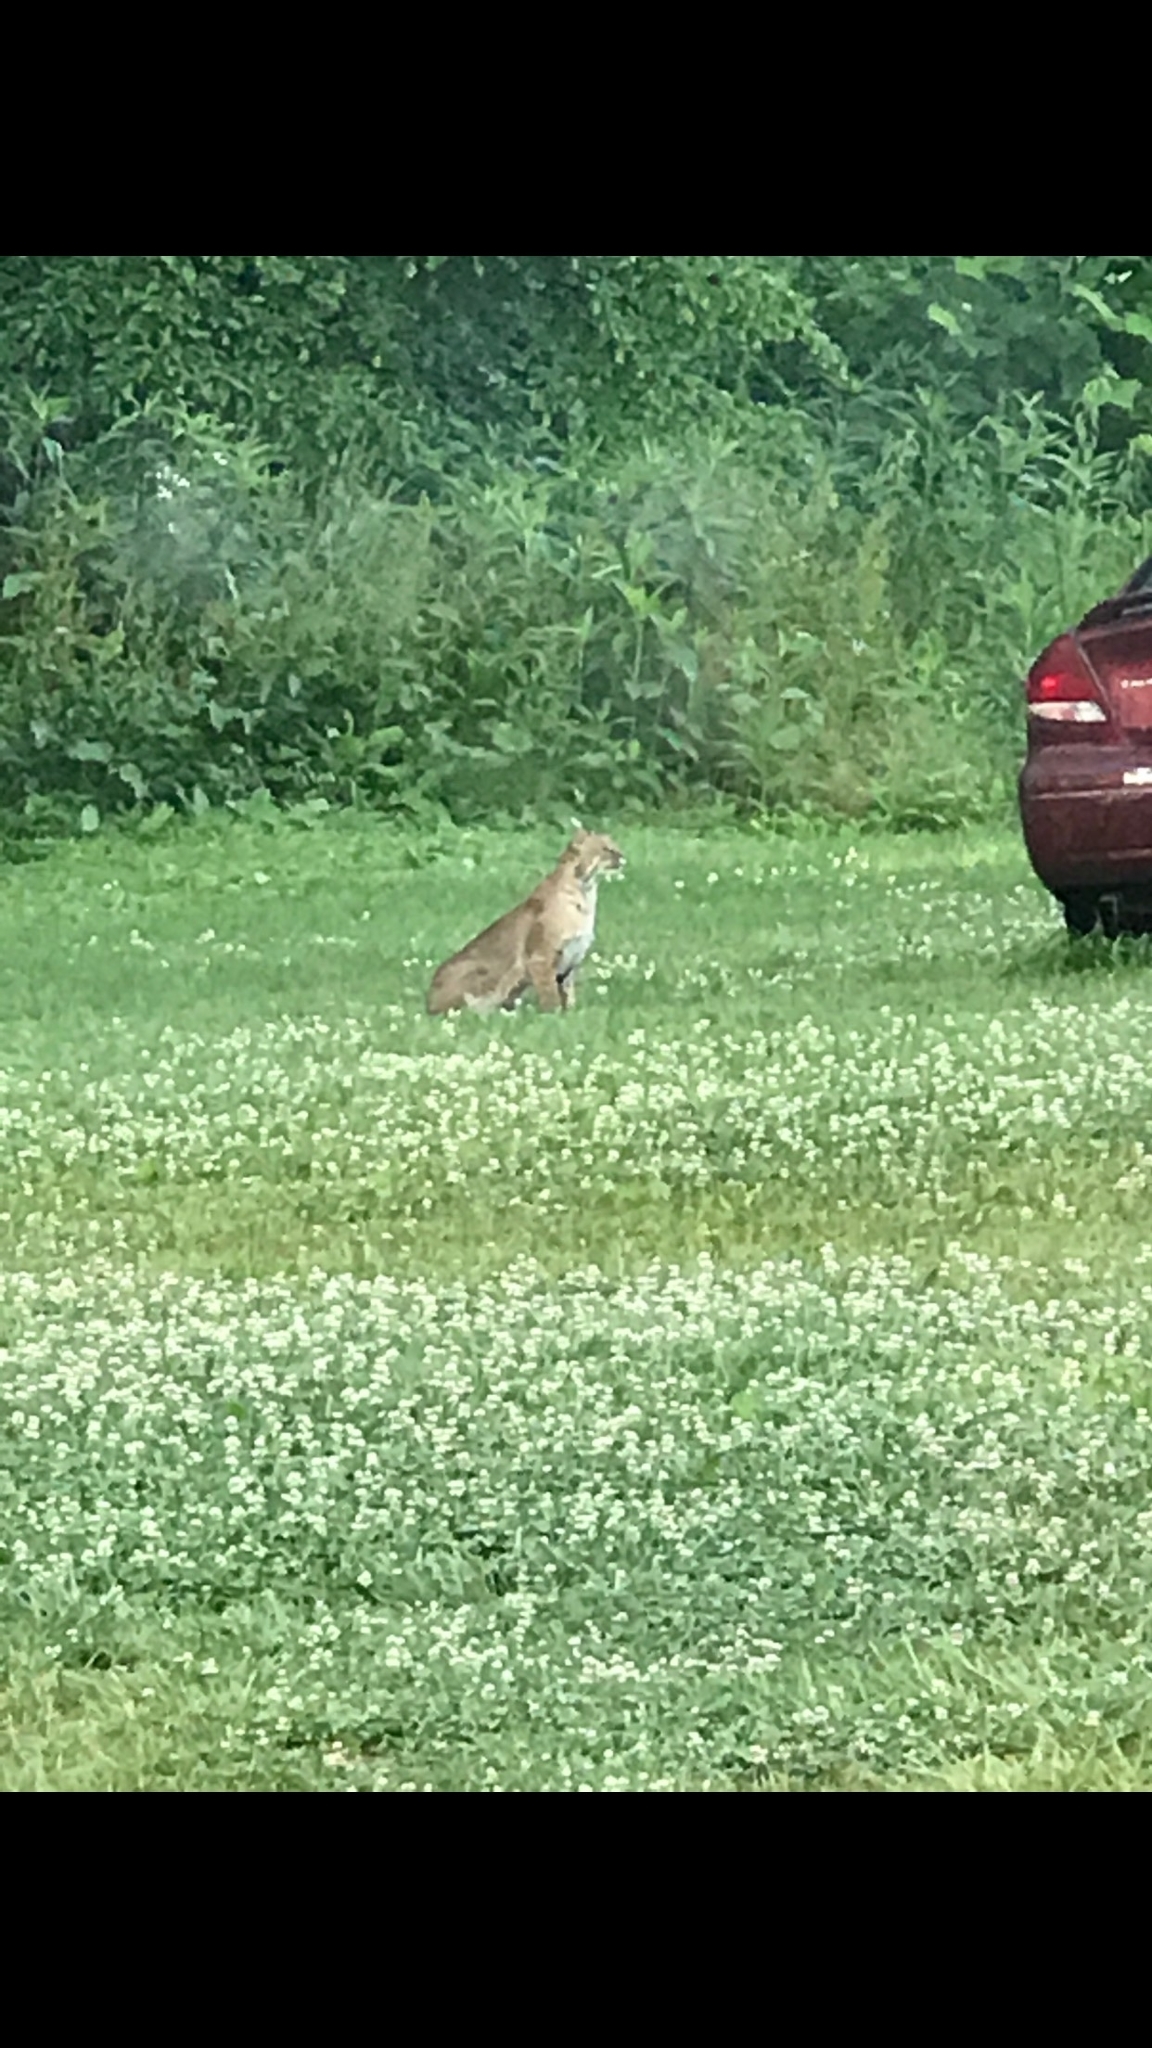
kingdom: Animalia
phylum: Chordata
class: Mammalia
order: Carnivora
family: Felidae
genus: Lynx
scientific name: Lynx rufus
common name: Bobcat
